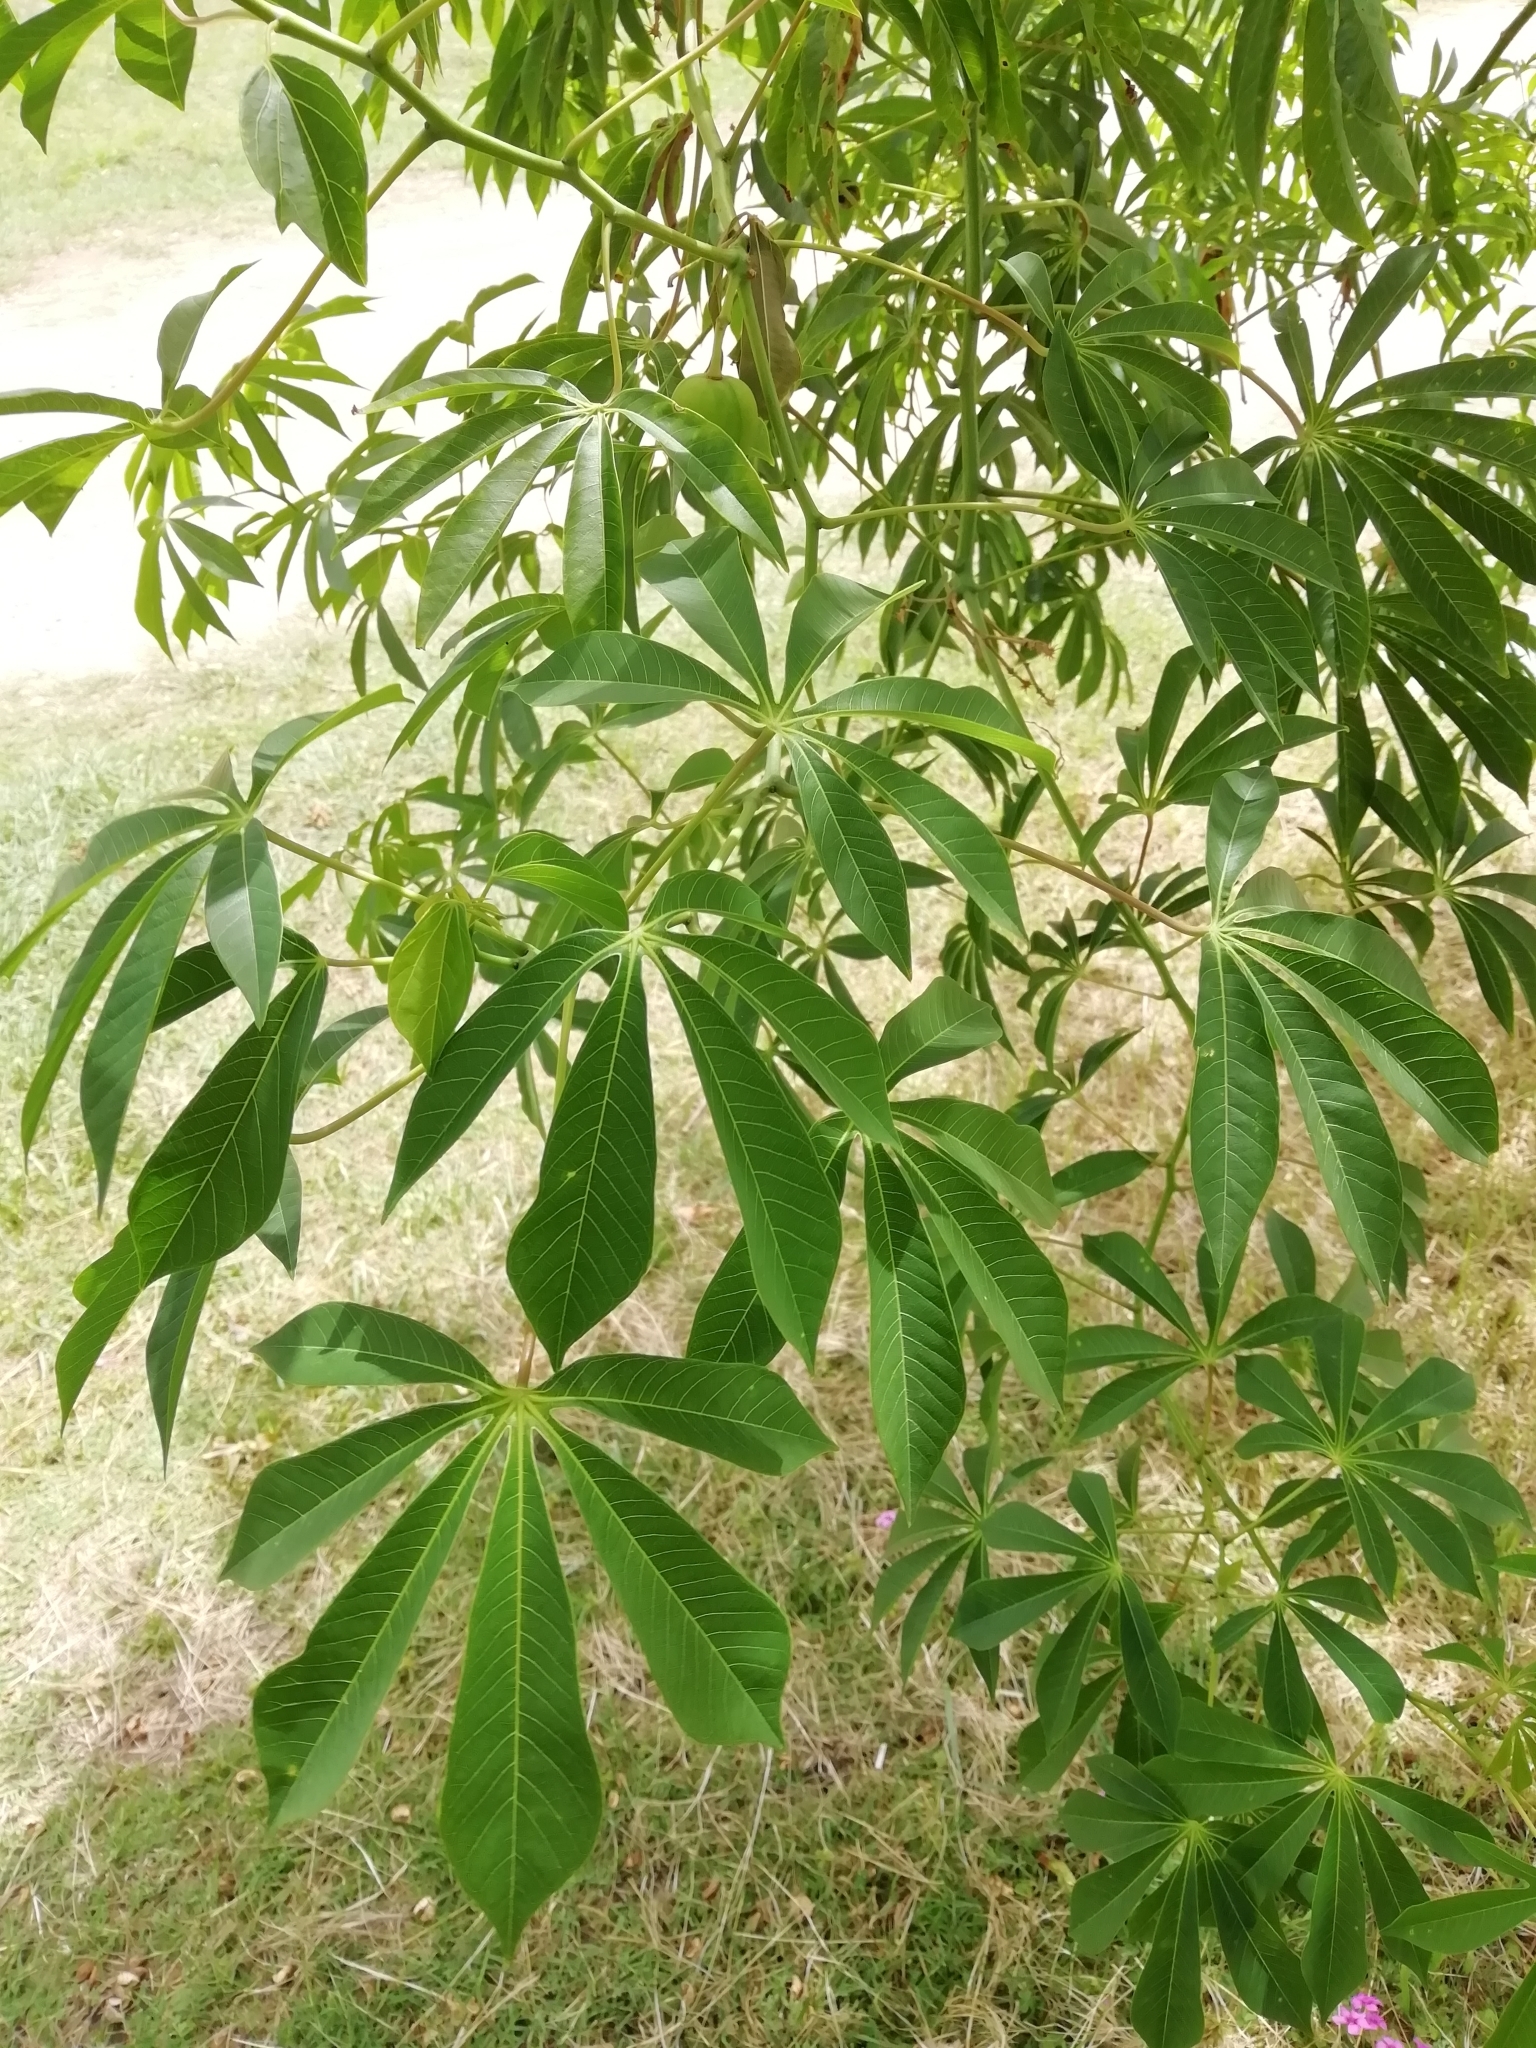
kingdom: Plantae
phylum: Tracheophyta
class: Magnoliopsida
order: Malpighiales
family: Euphorbiaceae
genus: Manihot
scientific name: Manihot grahamii
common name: Graham's manihot
